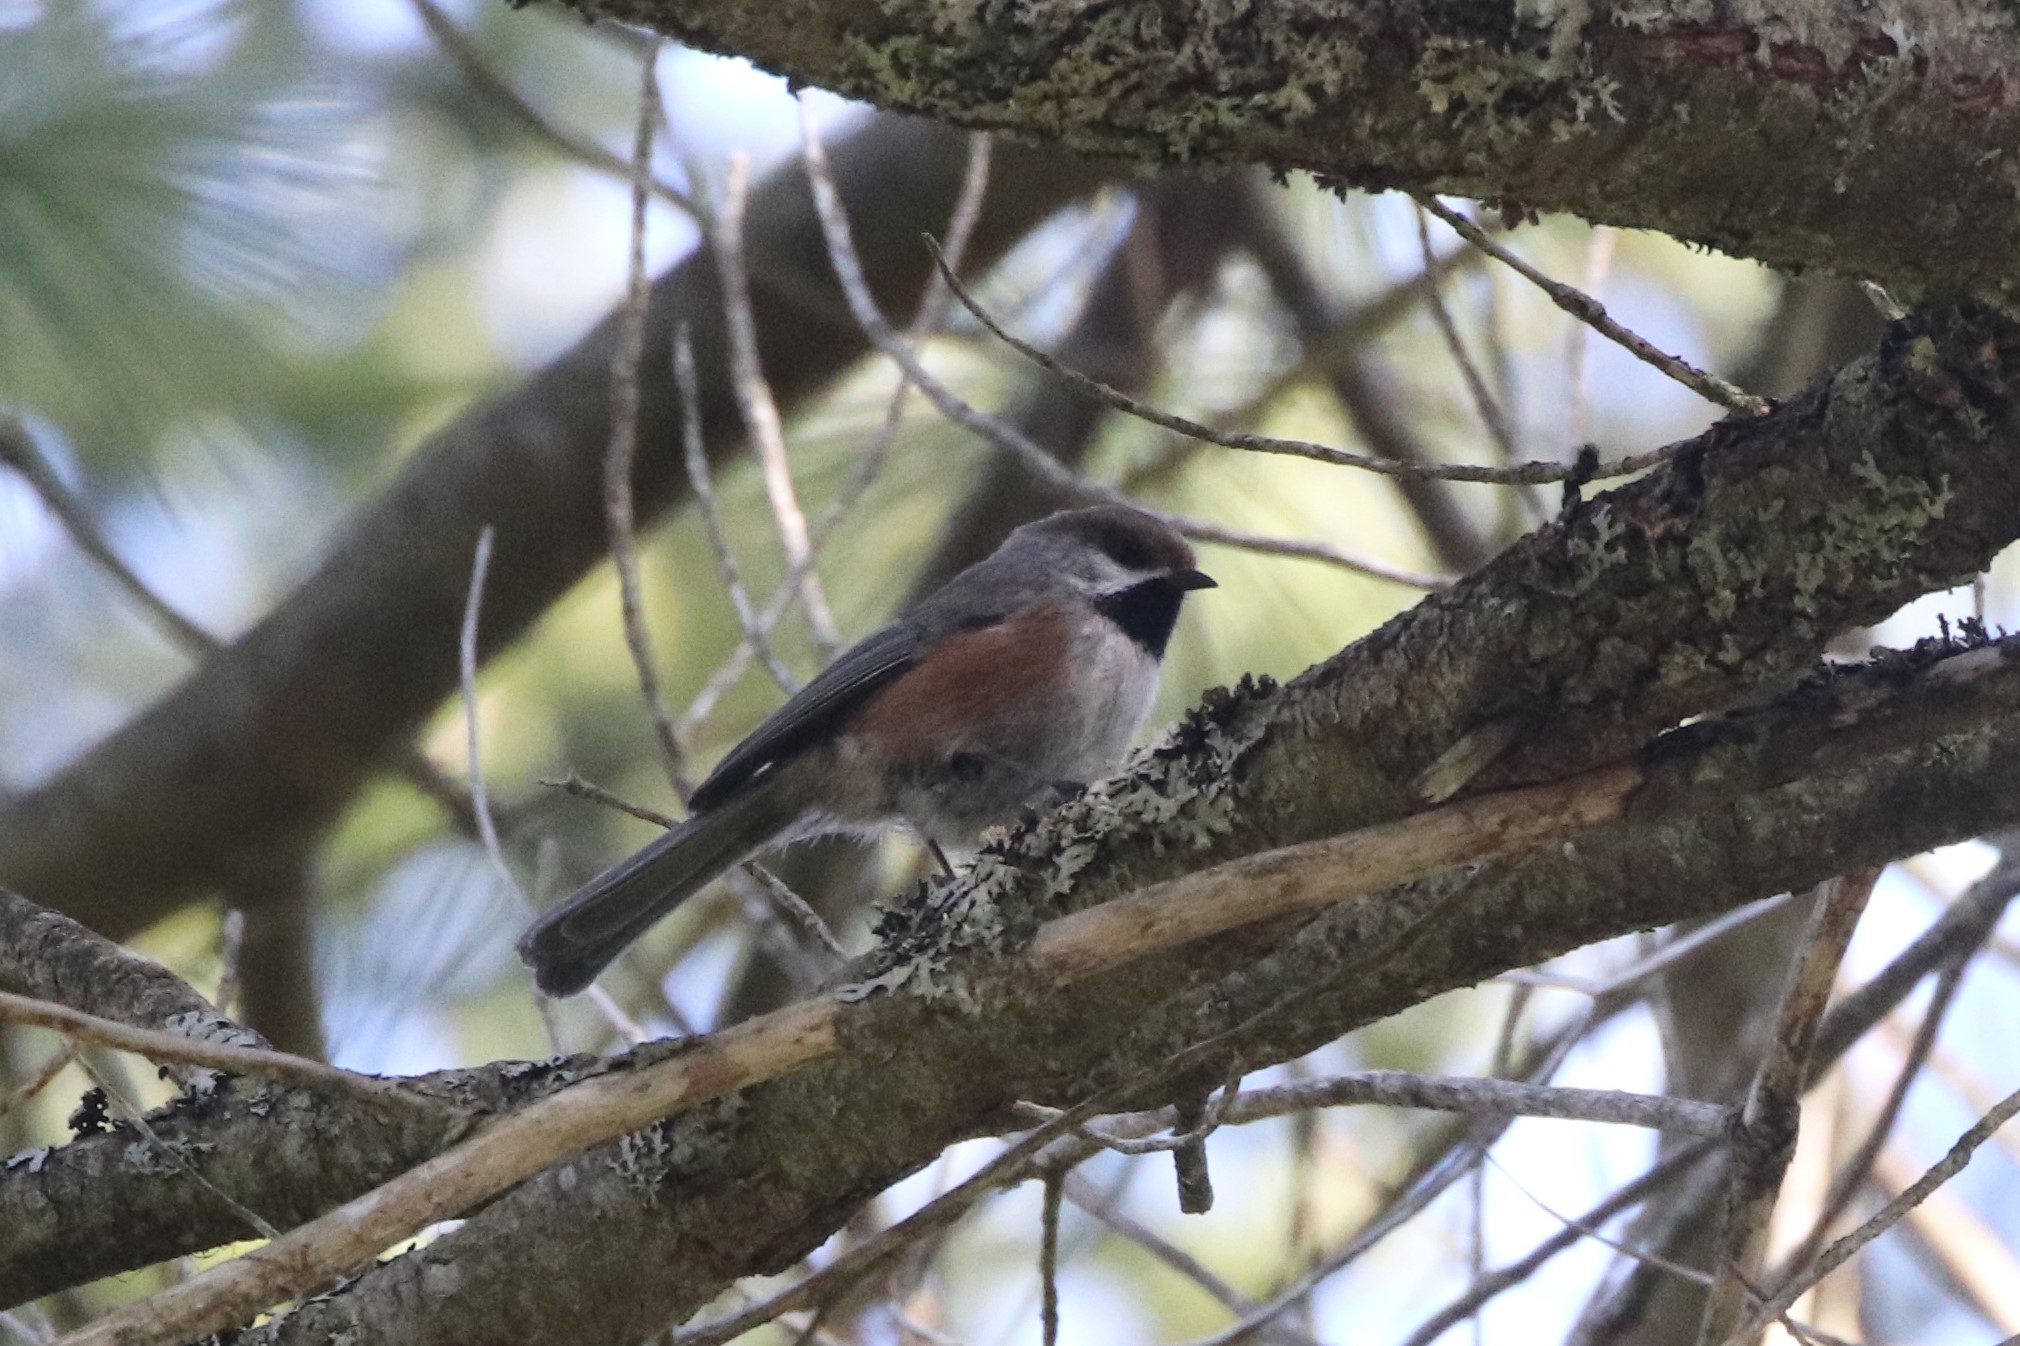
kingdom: Animalia
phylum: Chordata
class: Aves
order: Passeriformes
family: Paridae
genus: Poecile
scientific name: Poecile hudsonicus
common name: Boreal chickadee
